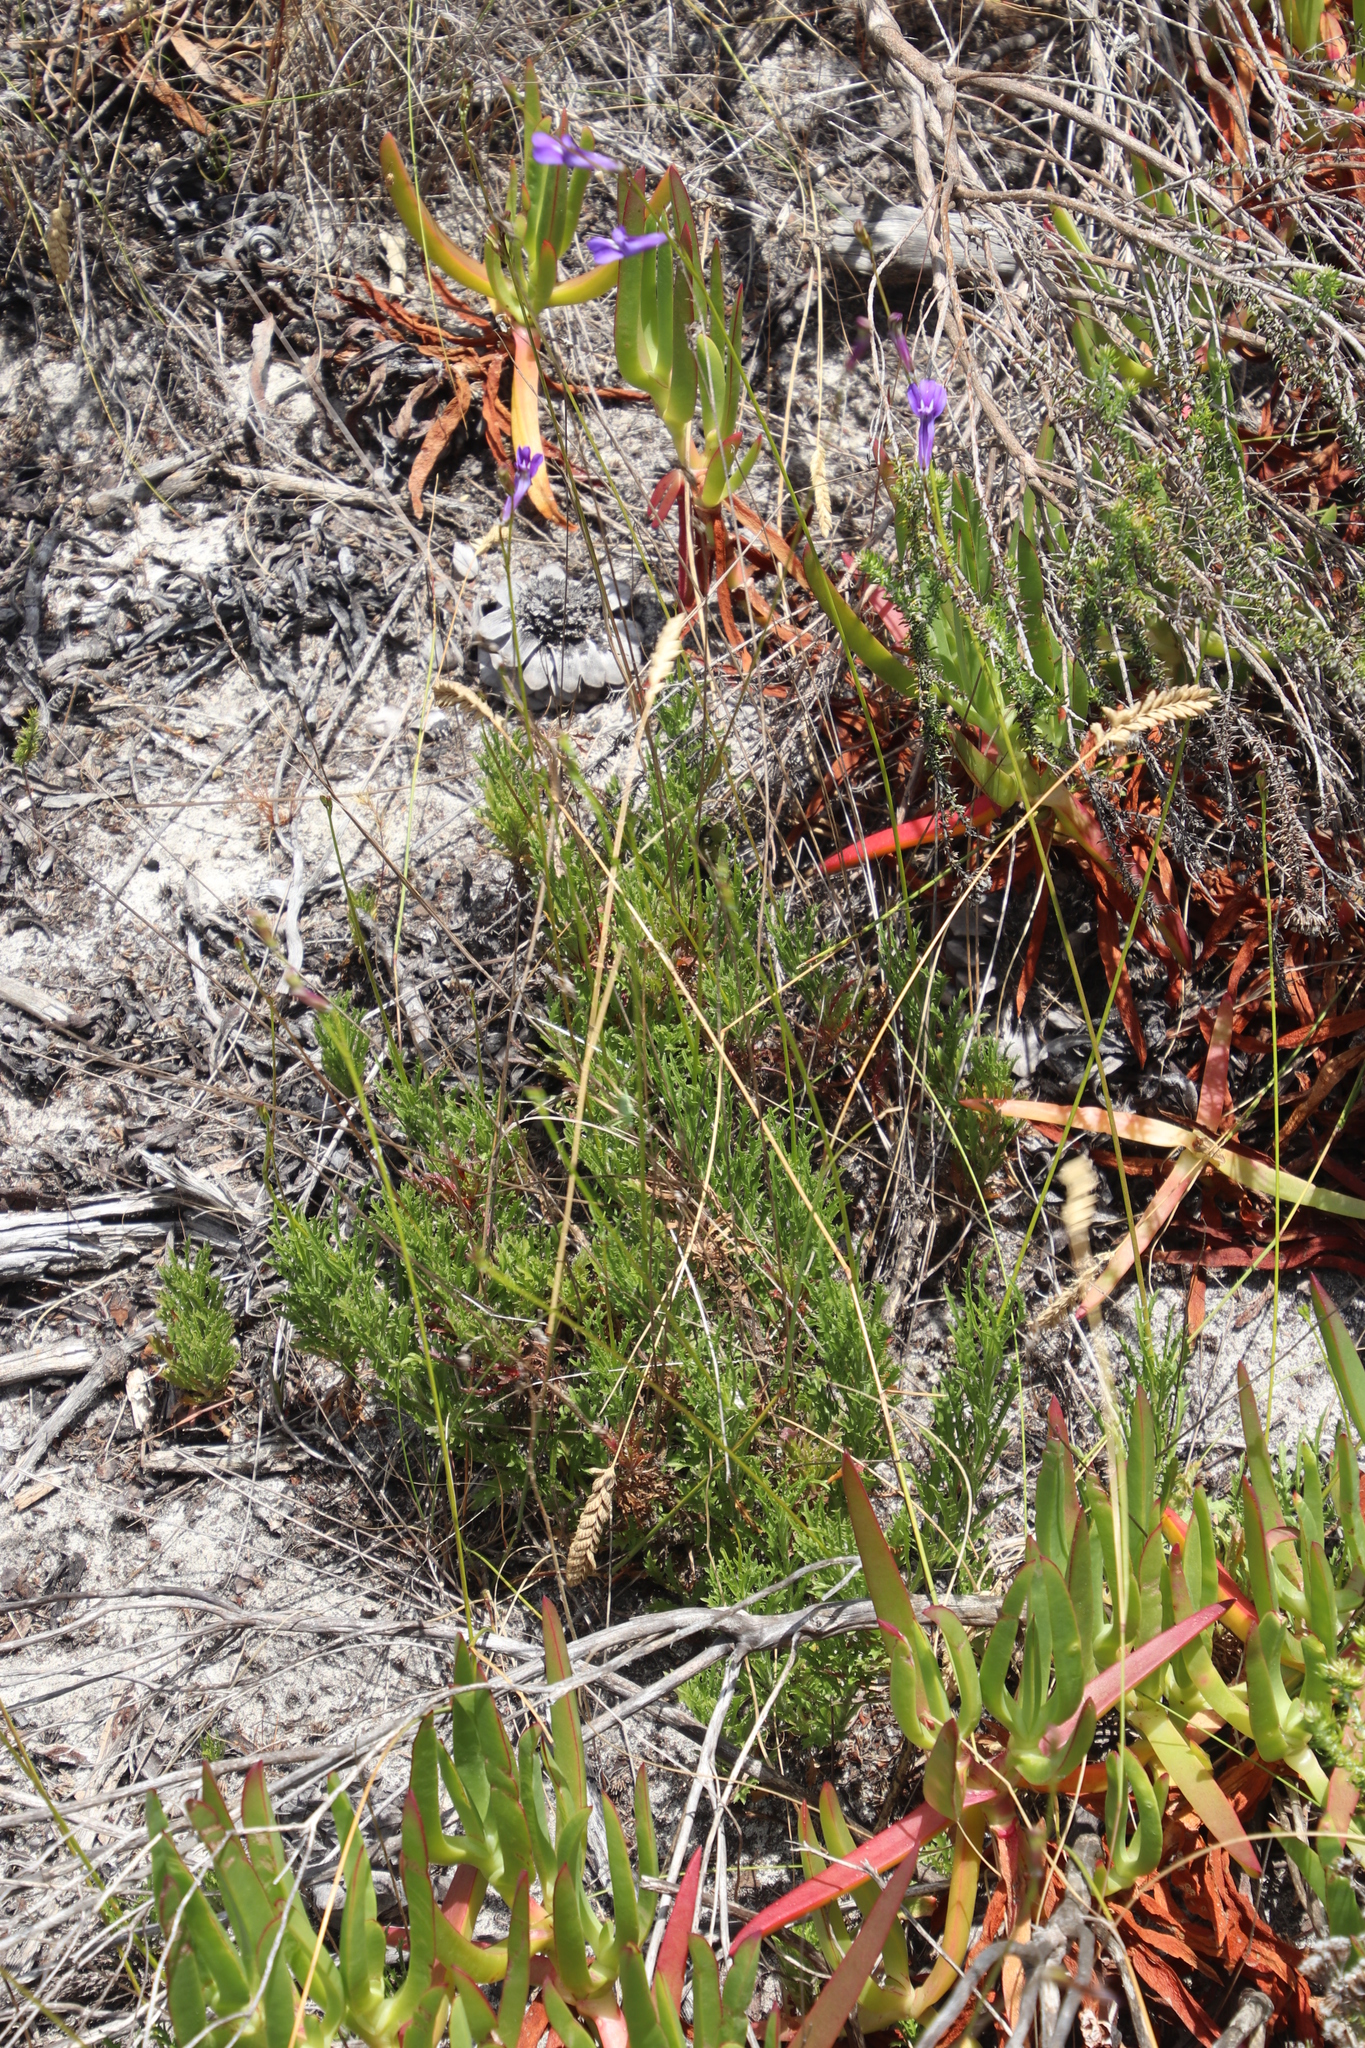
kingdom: Plantae
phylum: Tracheophyta
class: Magnoliopsida
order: Asterales
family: Campanulaceae
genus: Lobelia
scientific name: Lobelia coronopifolia
